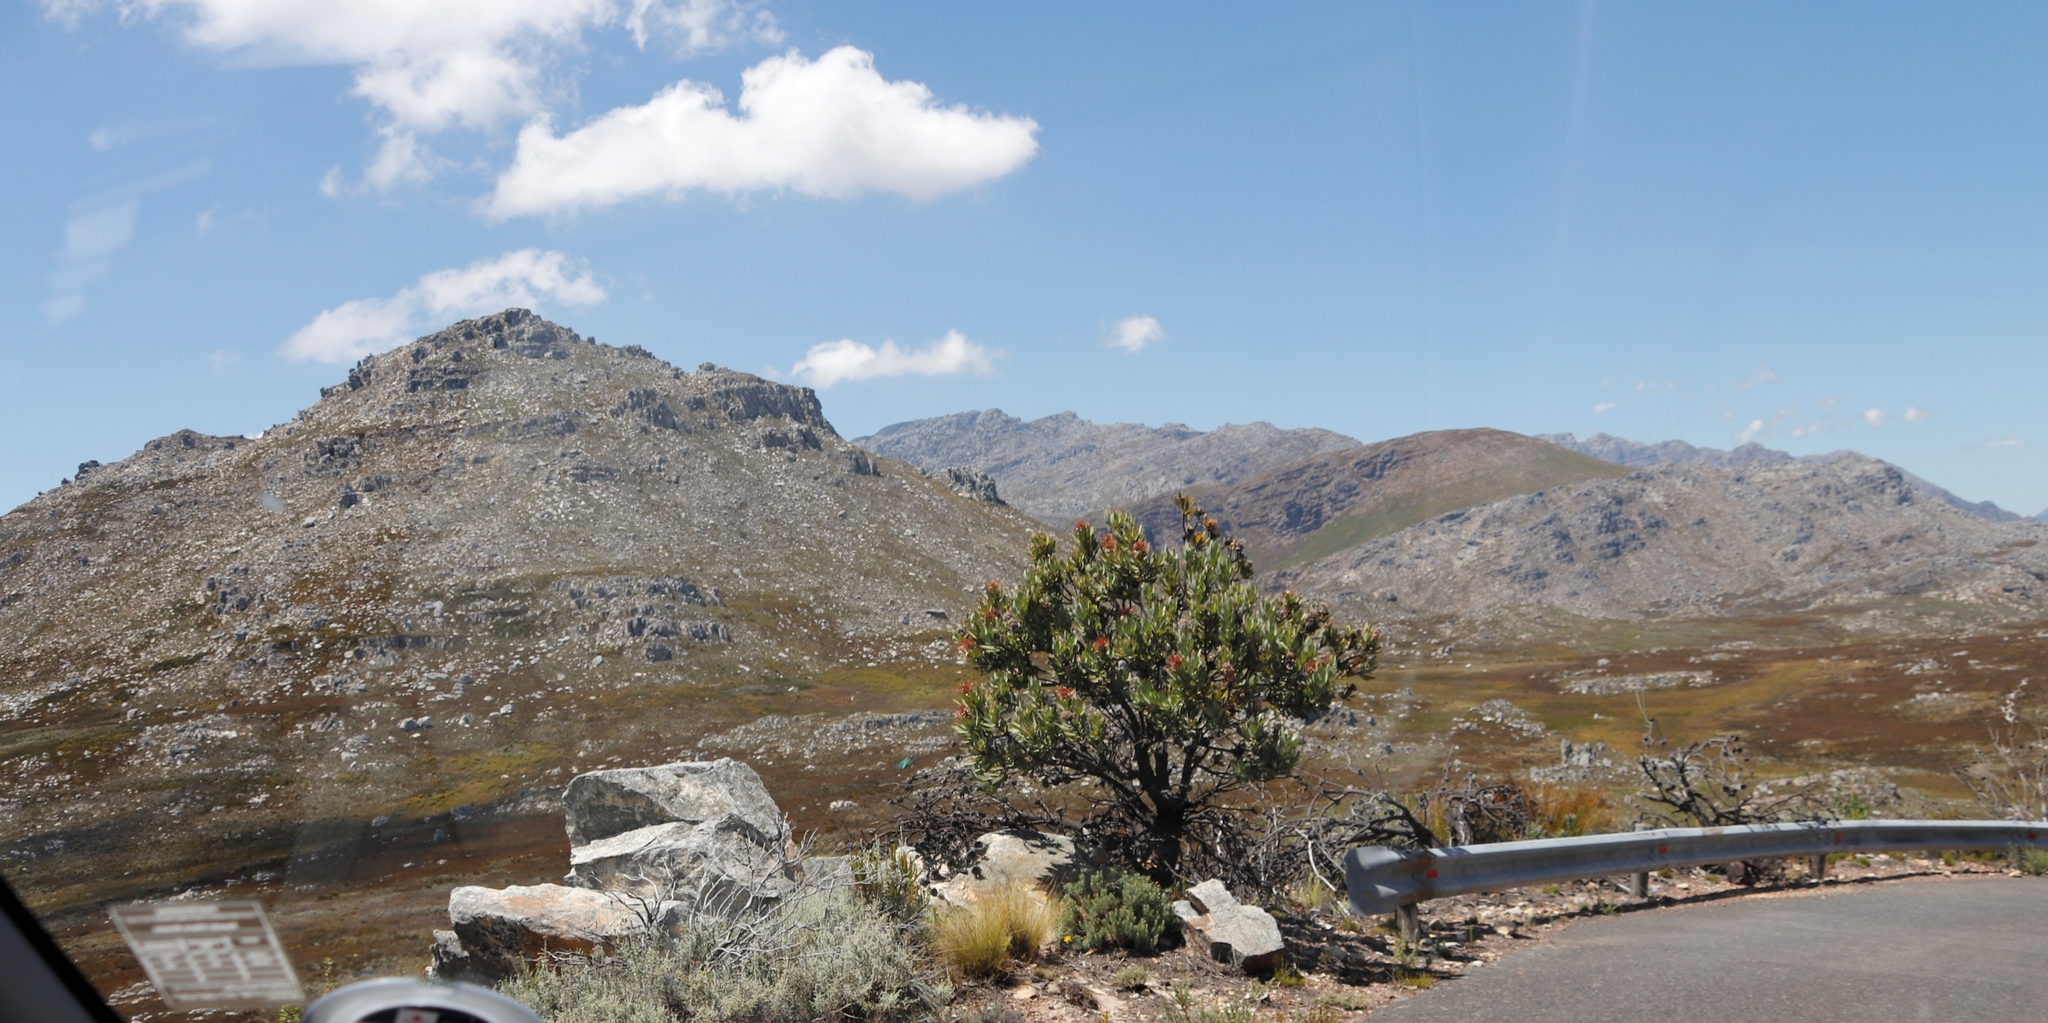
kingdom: Plantae
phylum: Tracheophyta
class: Magnoliopsida
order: Proteales
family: Proteaceae
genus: Protea
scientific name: Protea laurifolia
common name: Grey-leaf sugarbsh
